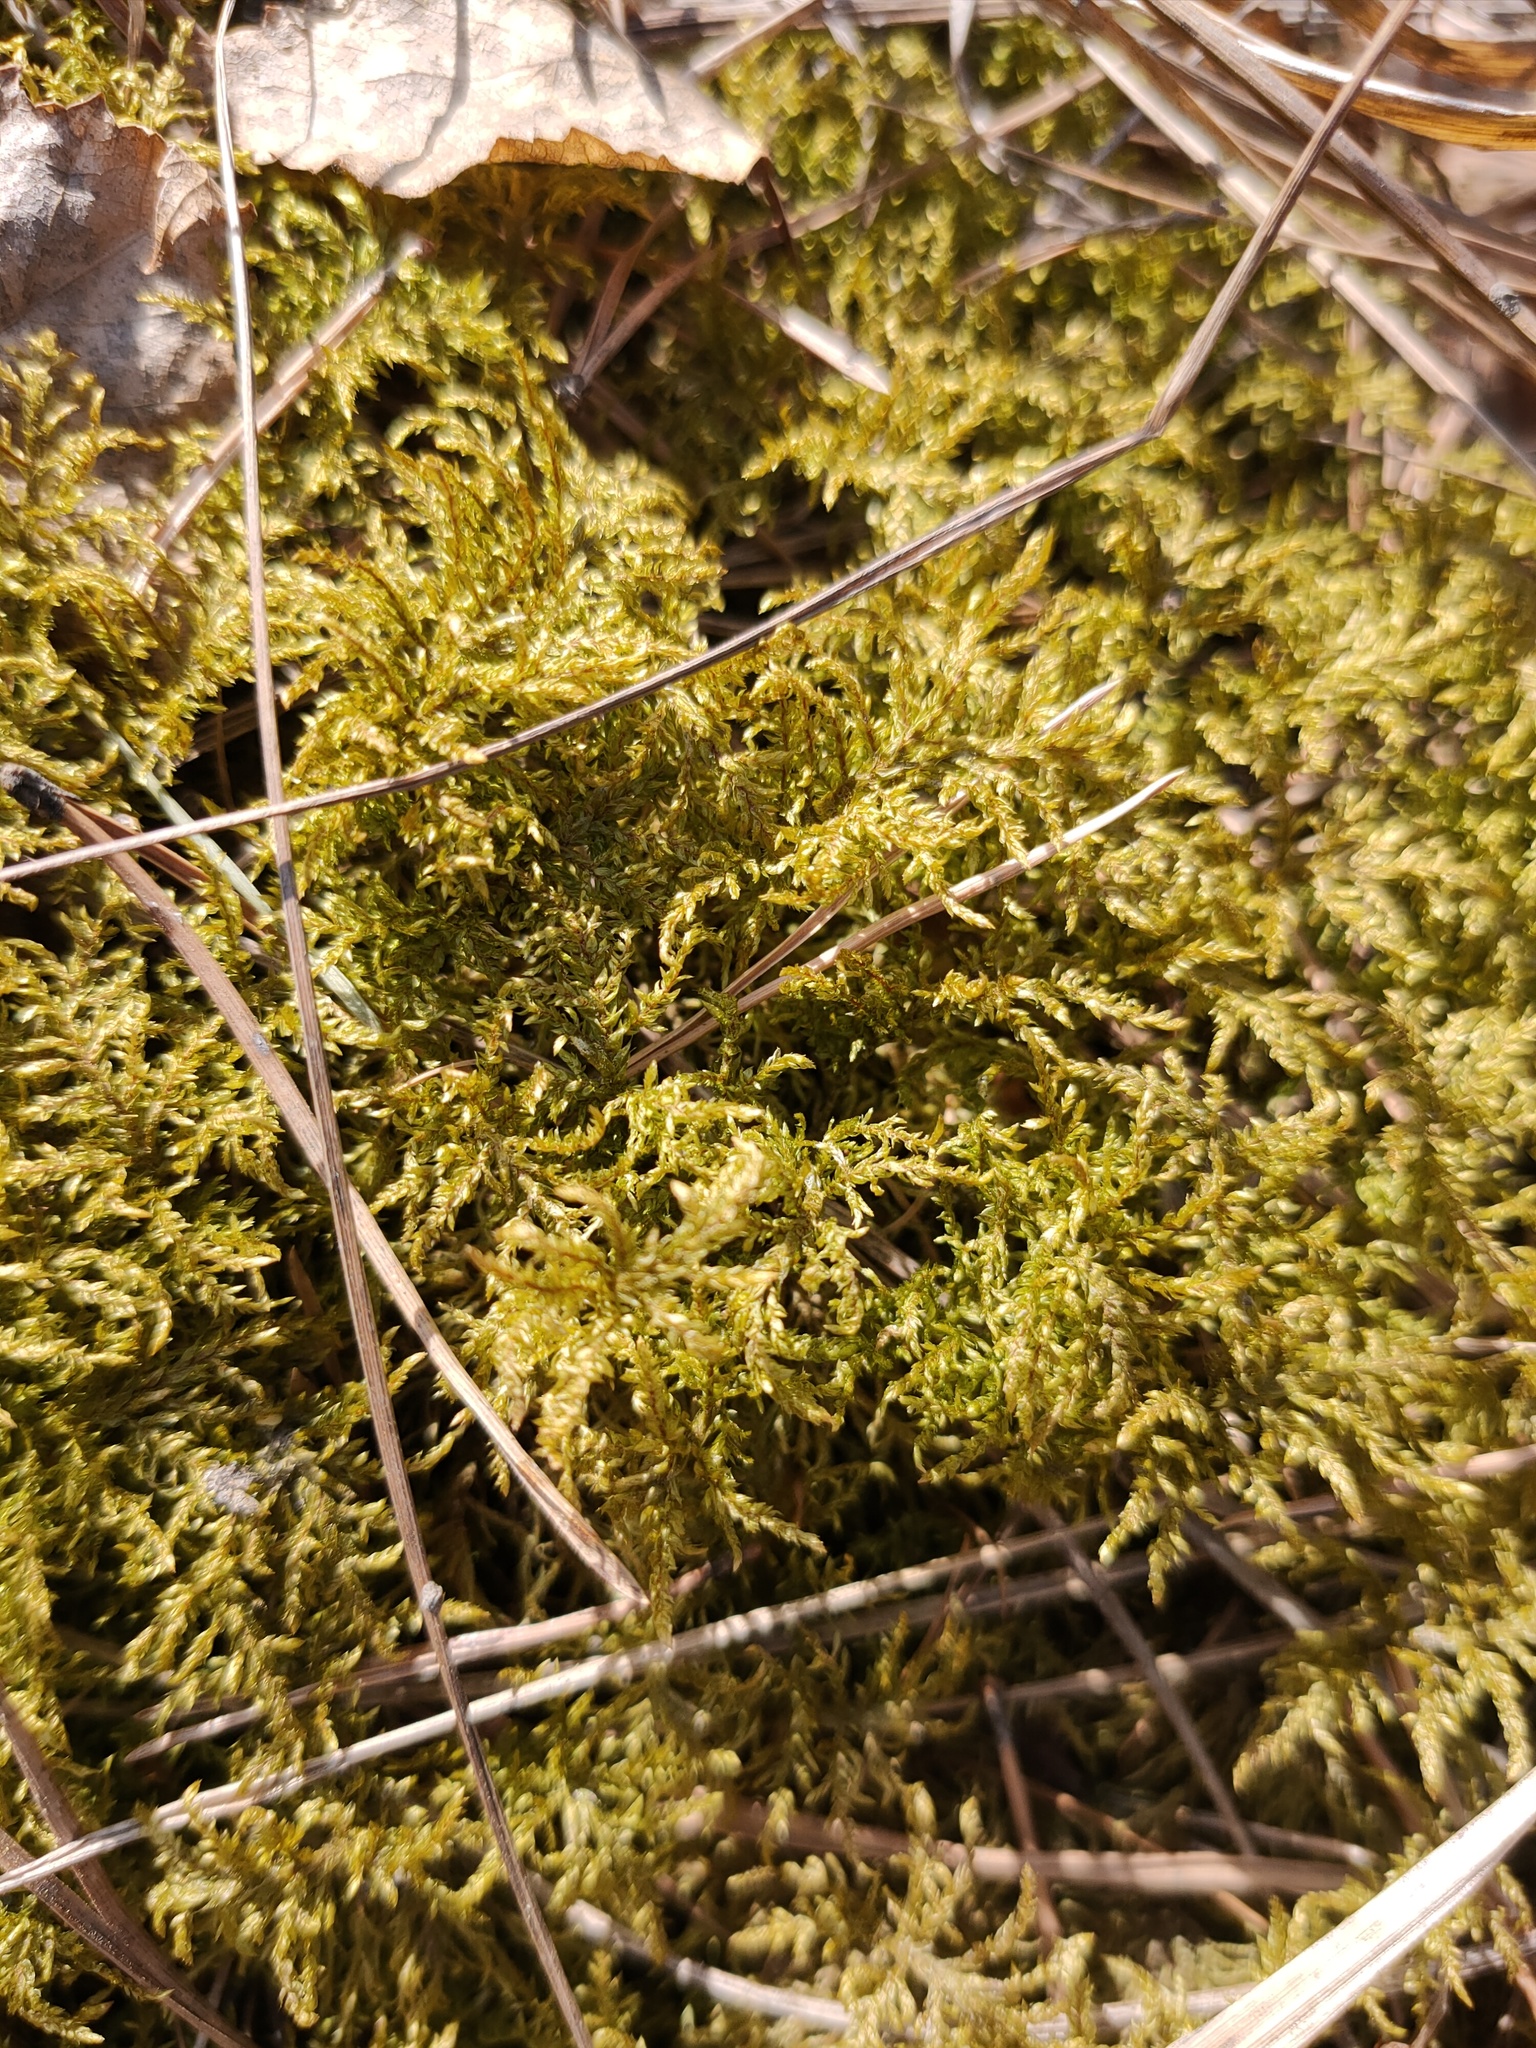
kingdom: Plantae
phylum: Bryophyta
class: Bryopsida
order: Hypnales
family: Hylocomiaceae
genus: Hylocomium
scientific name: Hylocomium splendens
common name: Stairstep moss
